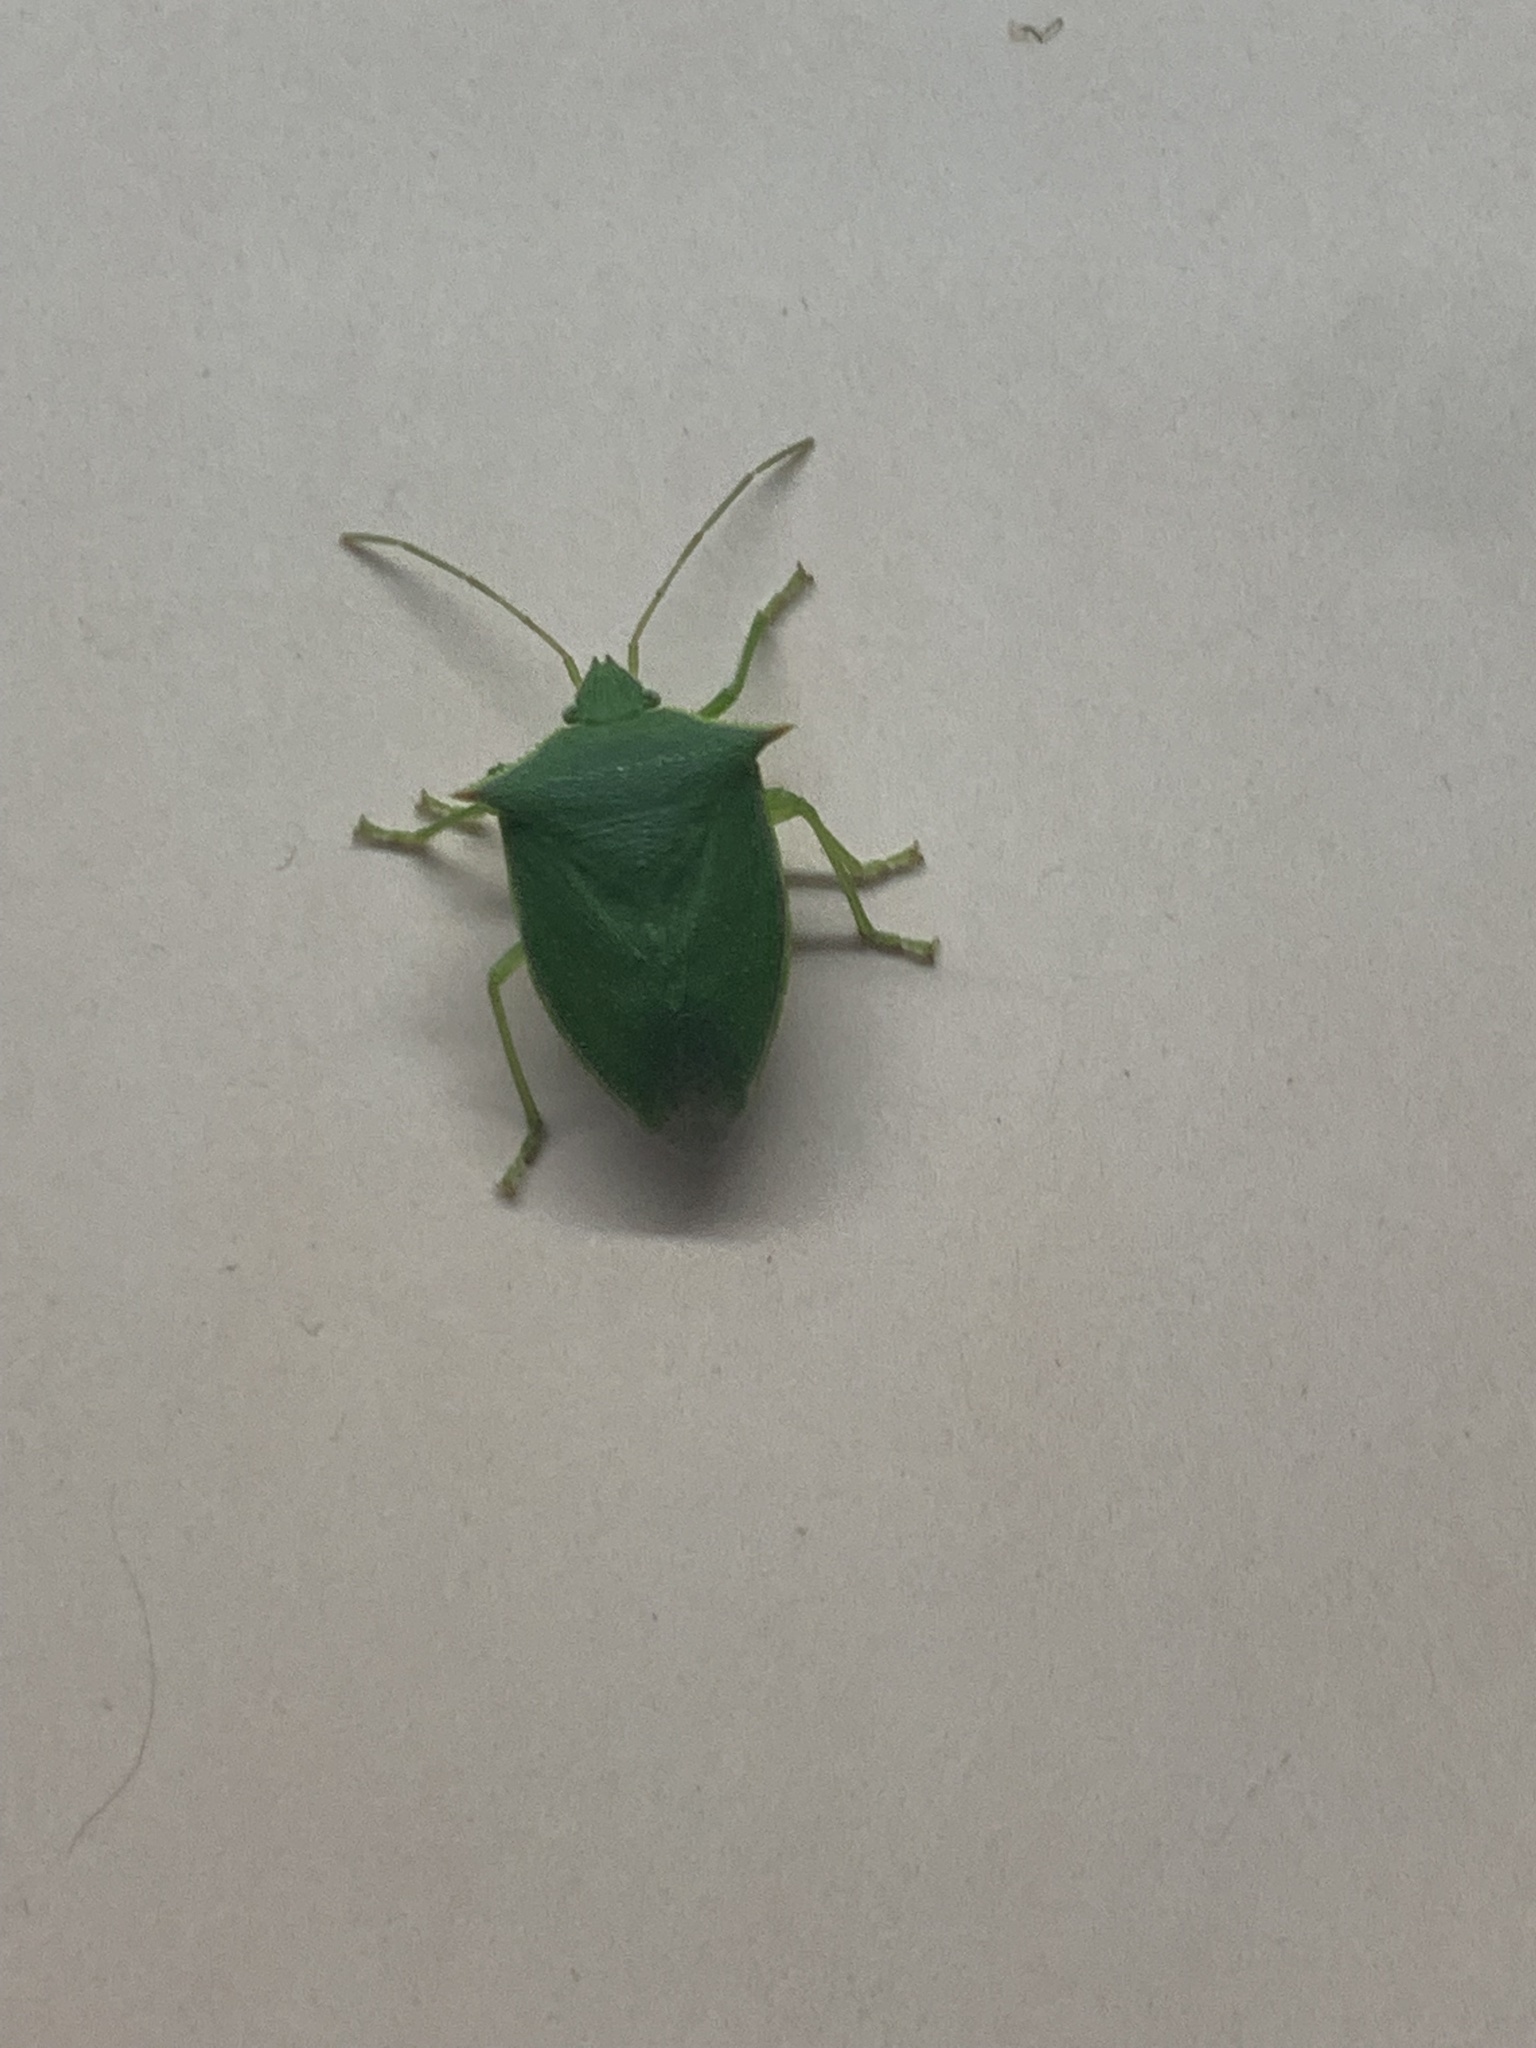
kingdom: Animalia
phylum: Arthropoda
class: Insecta
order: Hemiptera
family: Pentatomidae
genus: Loxa
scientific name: Loxa deducta
